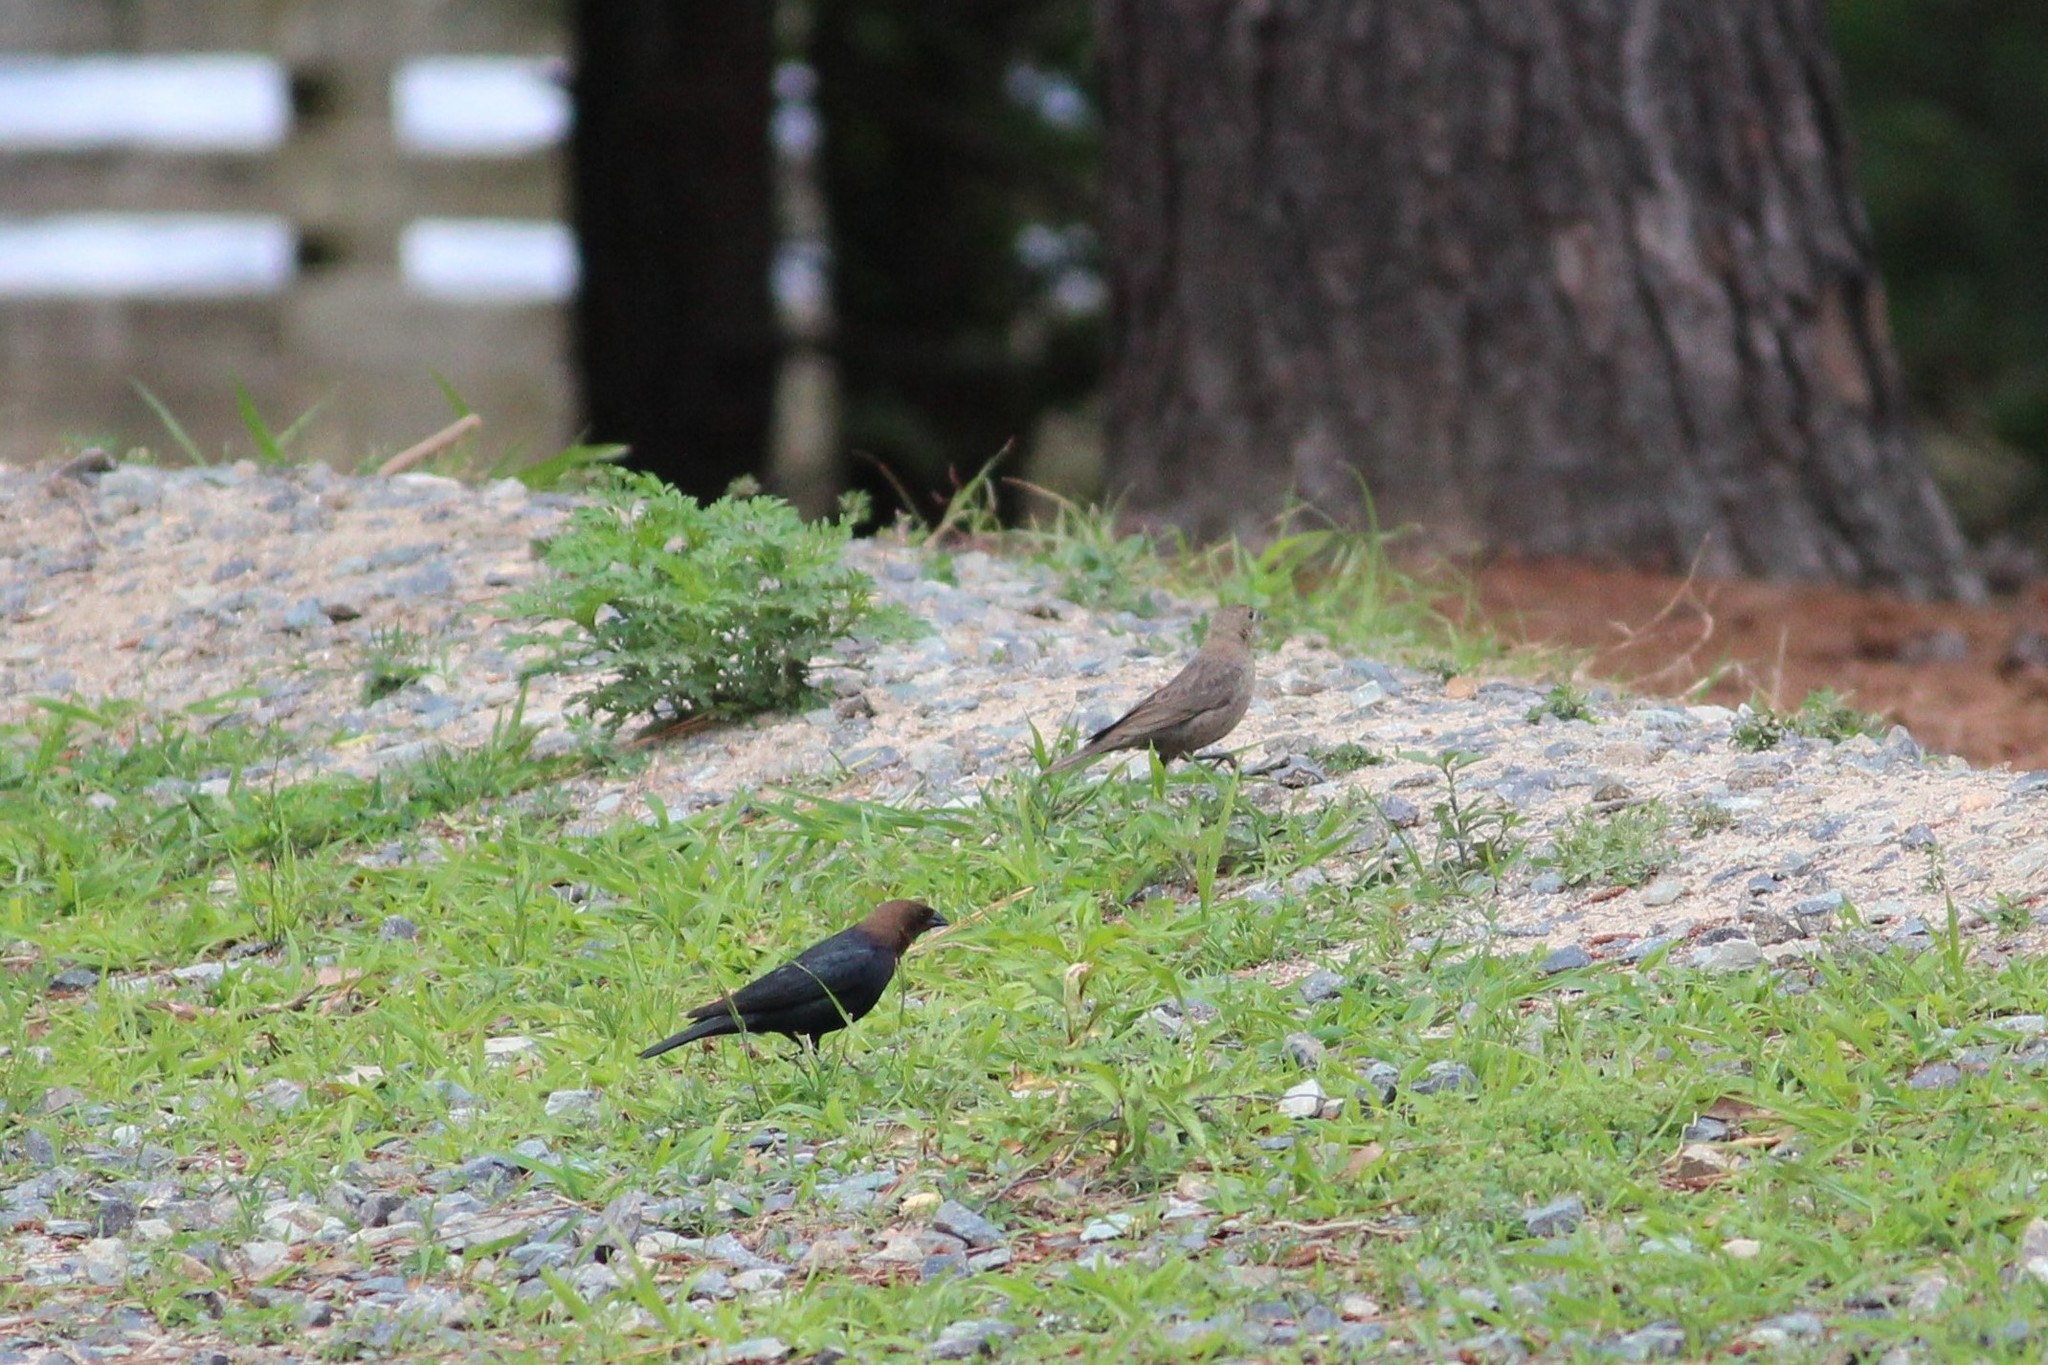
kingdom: Animalia
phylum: Chordata
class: Aves
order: Passeriformes
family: Icteridae
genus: Molothrus
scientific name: Molothrus ater
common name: Brown-headed cowbird
